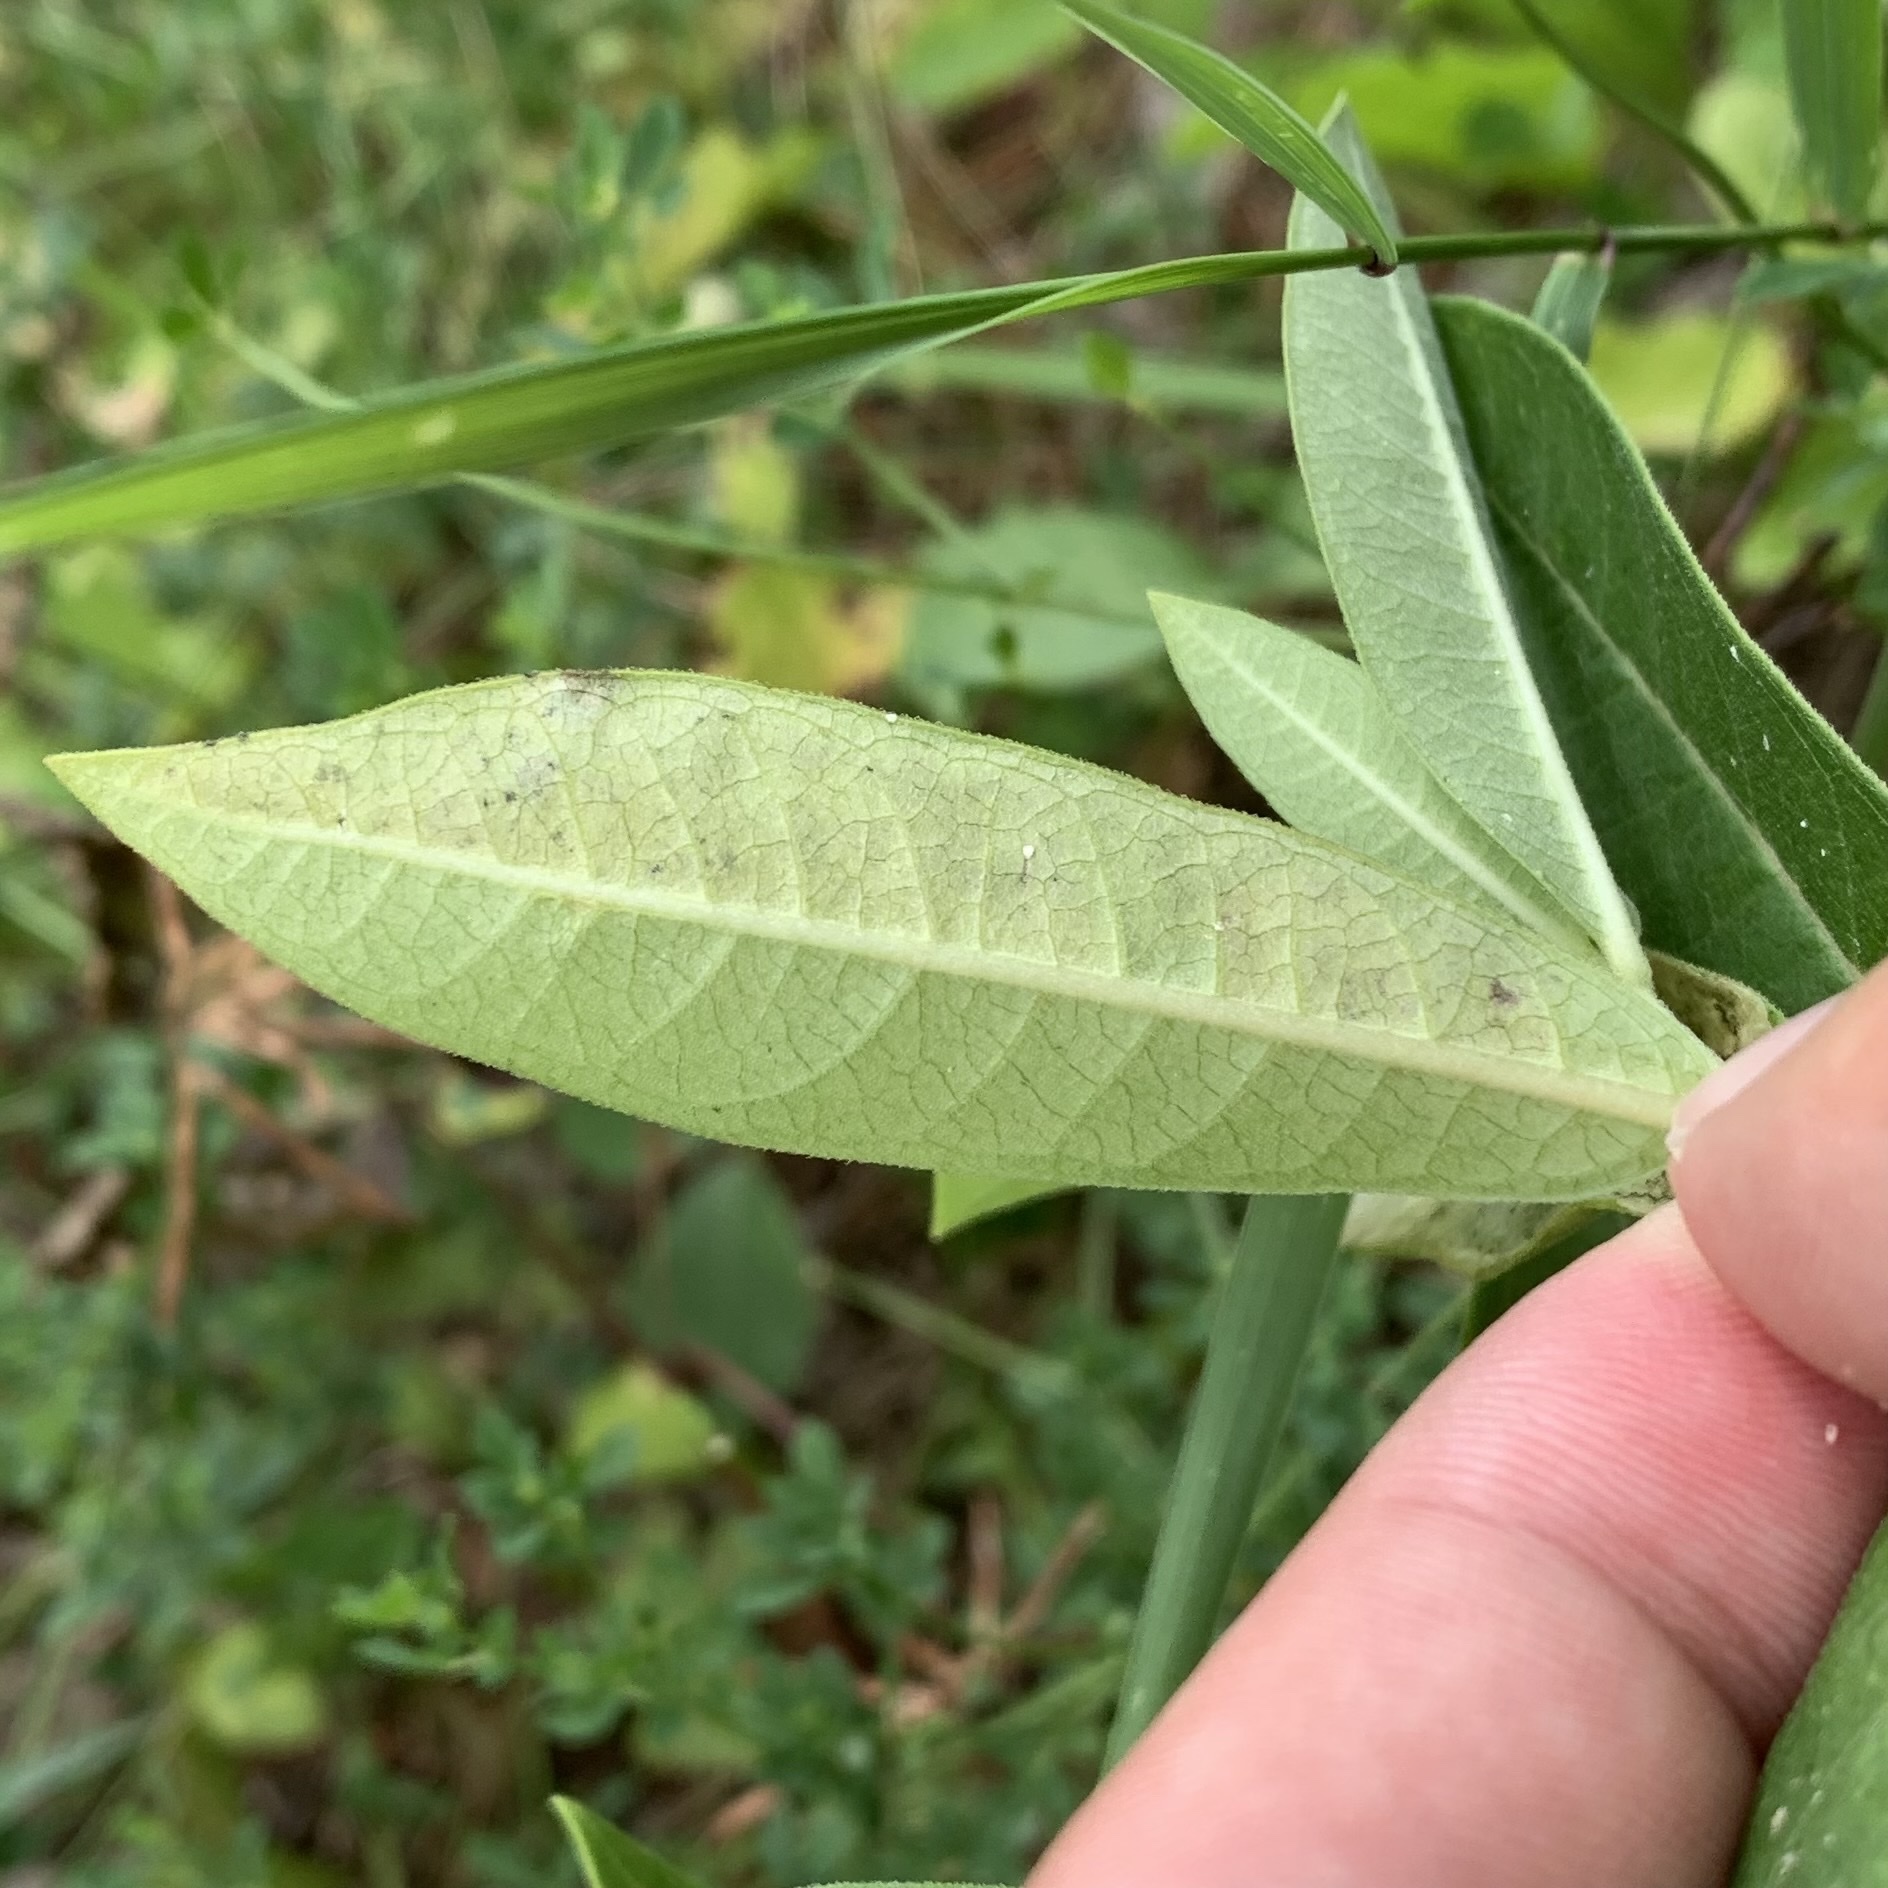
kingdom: Animalia
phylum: Arthropoda
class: Insecta
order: Diptera
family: Agromyzidae
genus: Liriomyza
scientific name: Liriomyza asclepiadis
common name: Milkweed leaf-miner fly
